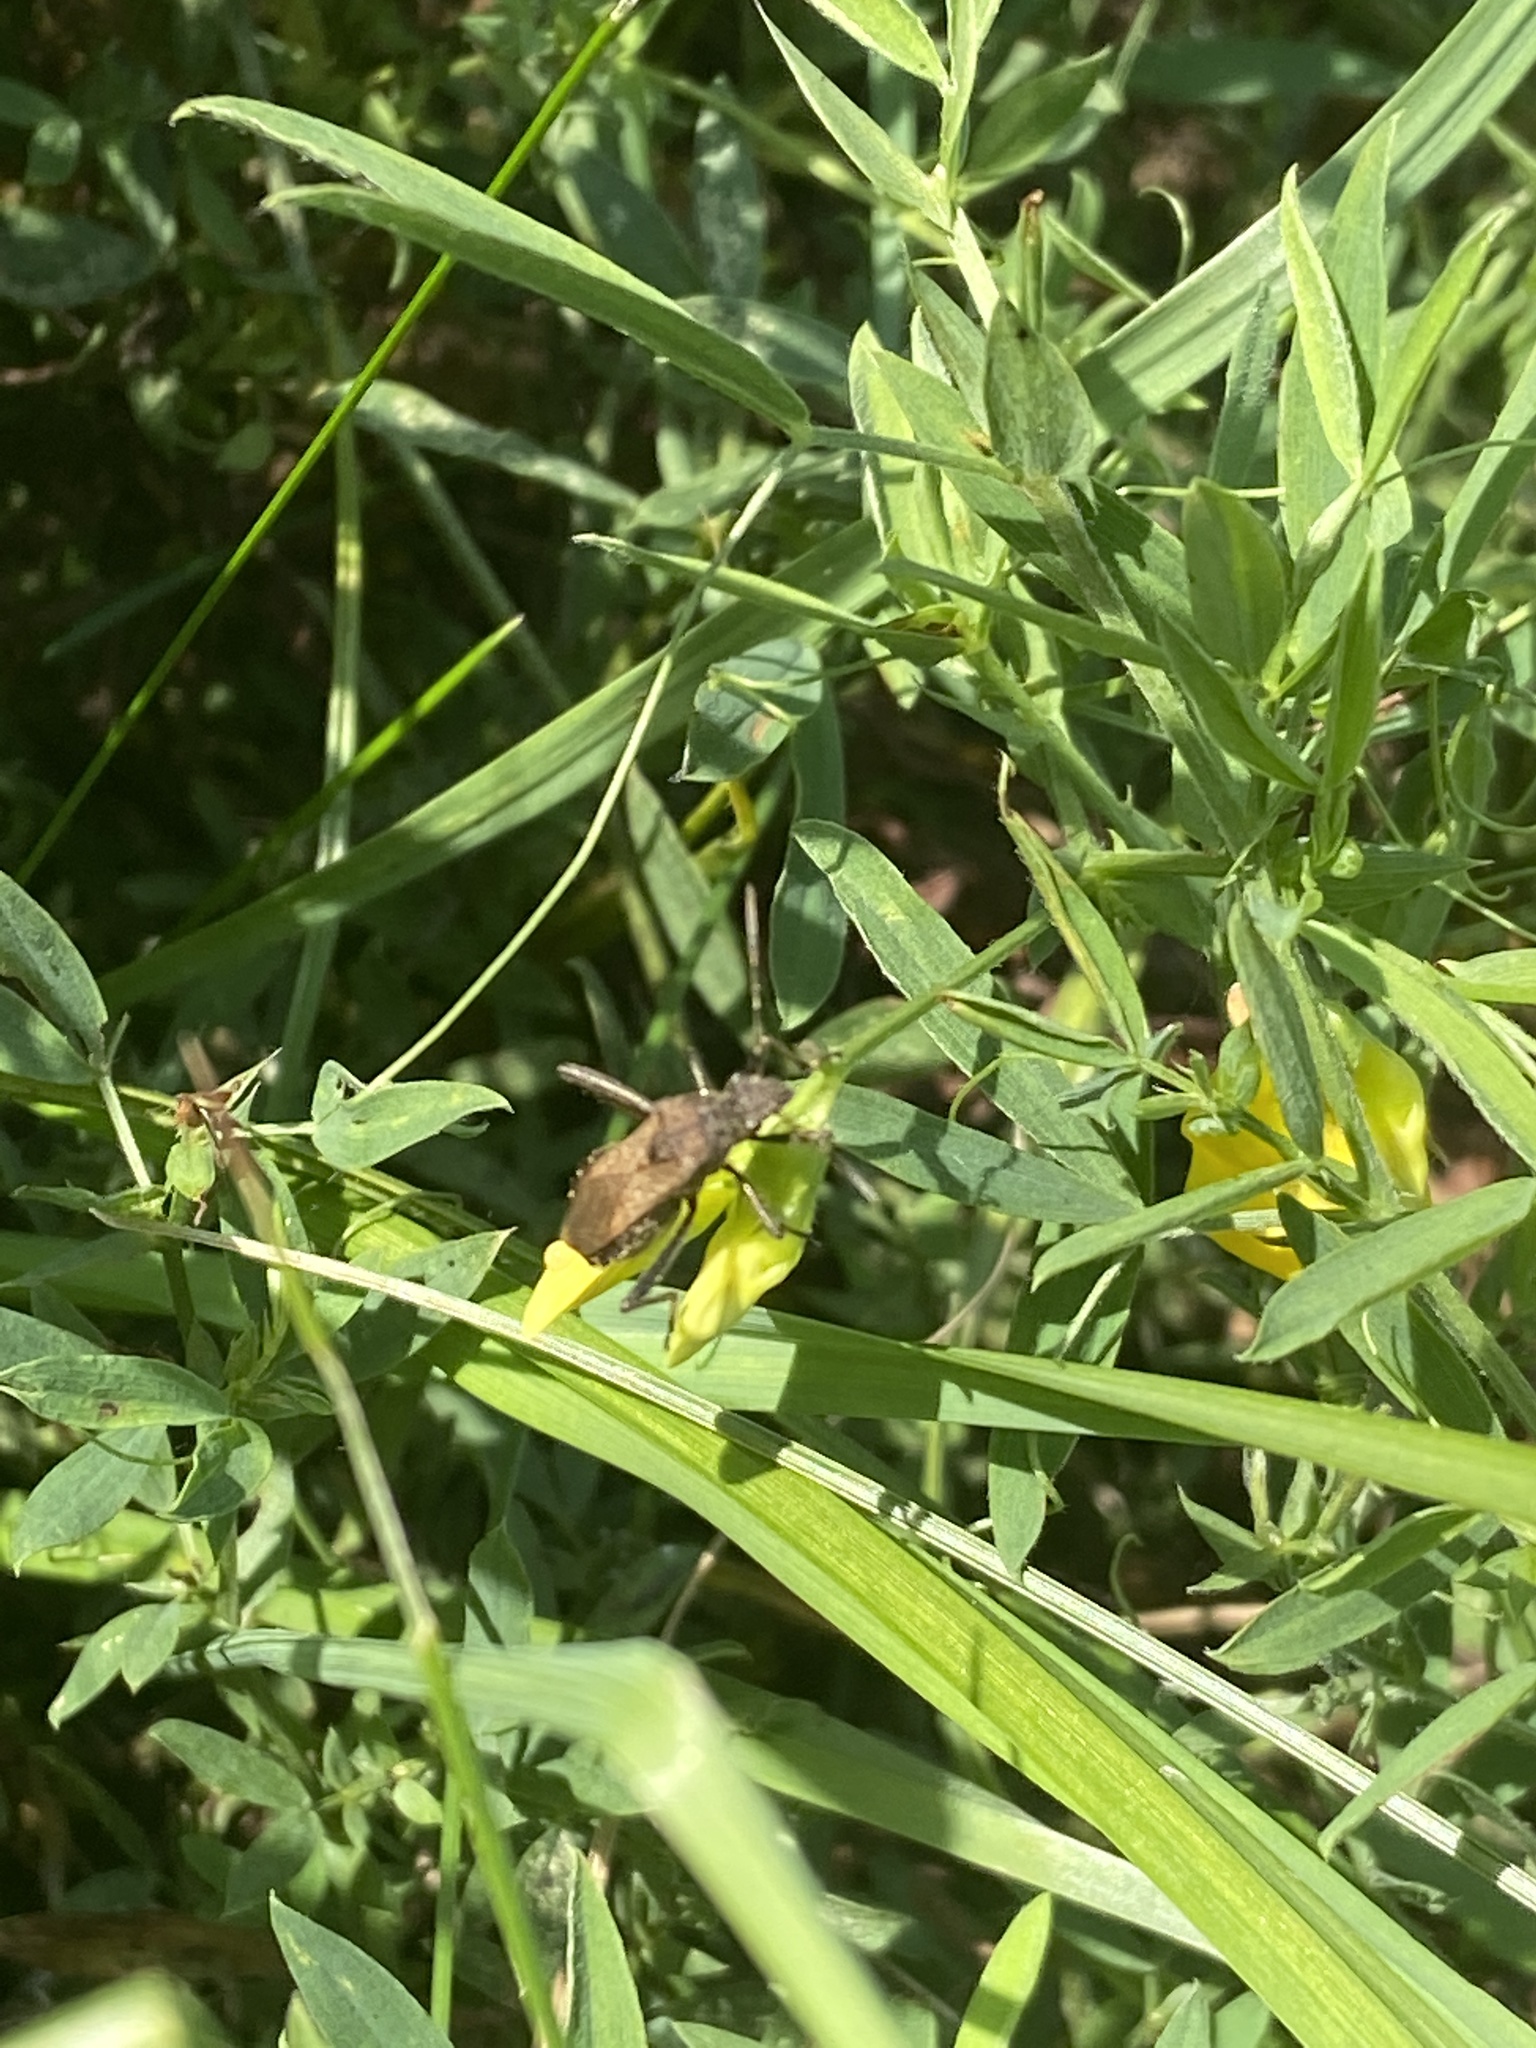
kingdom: Animalia
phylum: Arthropoda
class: Insecta
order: Hemiptera
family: Alydidae
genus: Alydus
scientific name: Alydus calcaratus
